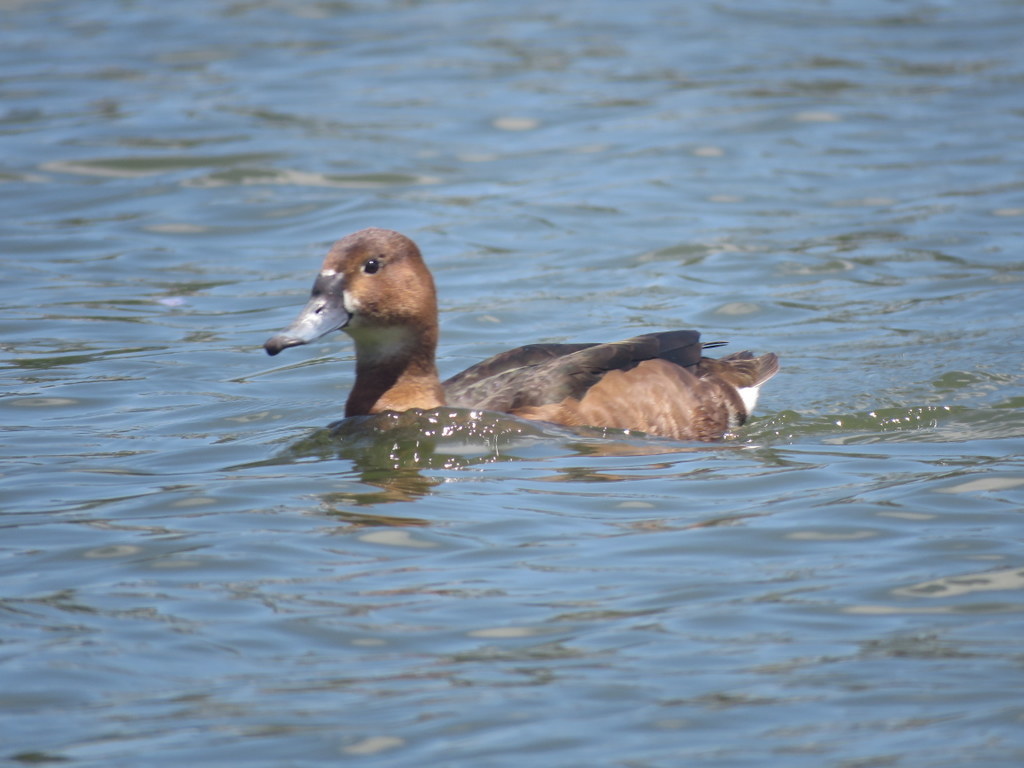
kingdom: Animalia
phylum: Chordata
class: Aves
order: Anseriformes
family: Anatidae
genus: Netta
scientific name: Netta peposaca
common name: Rosy-billed pochard
